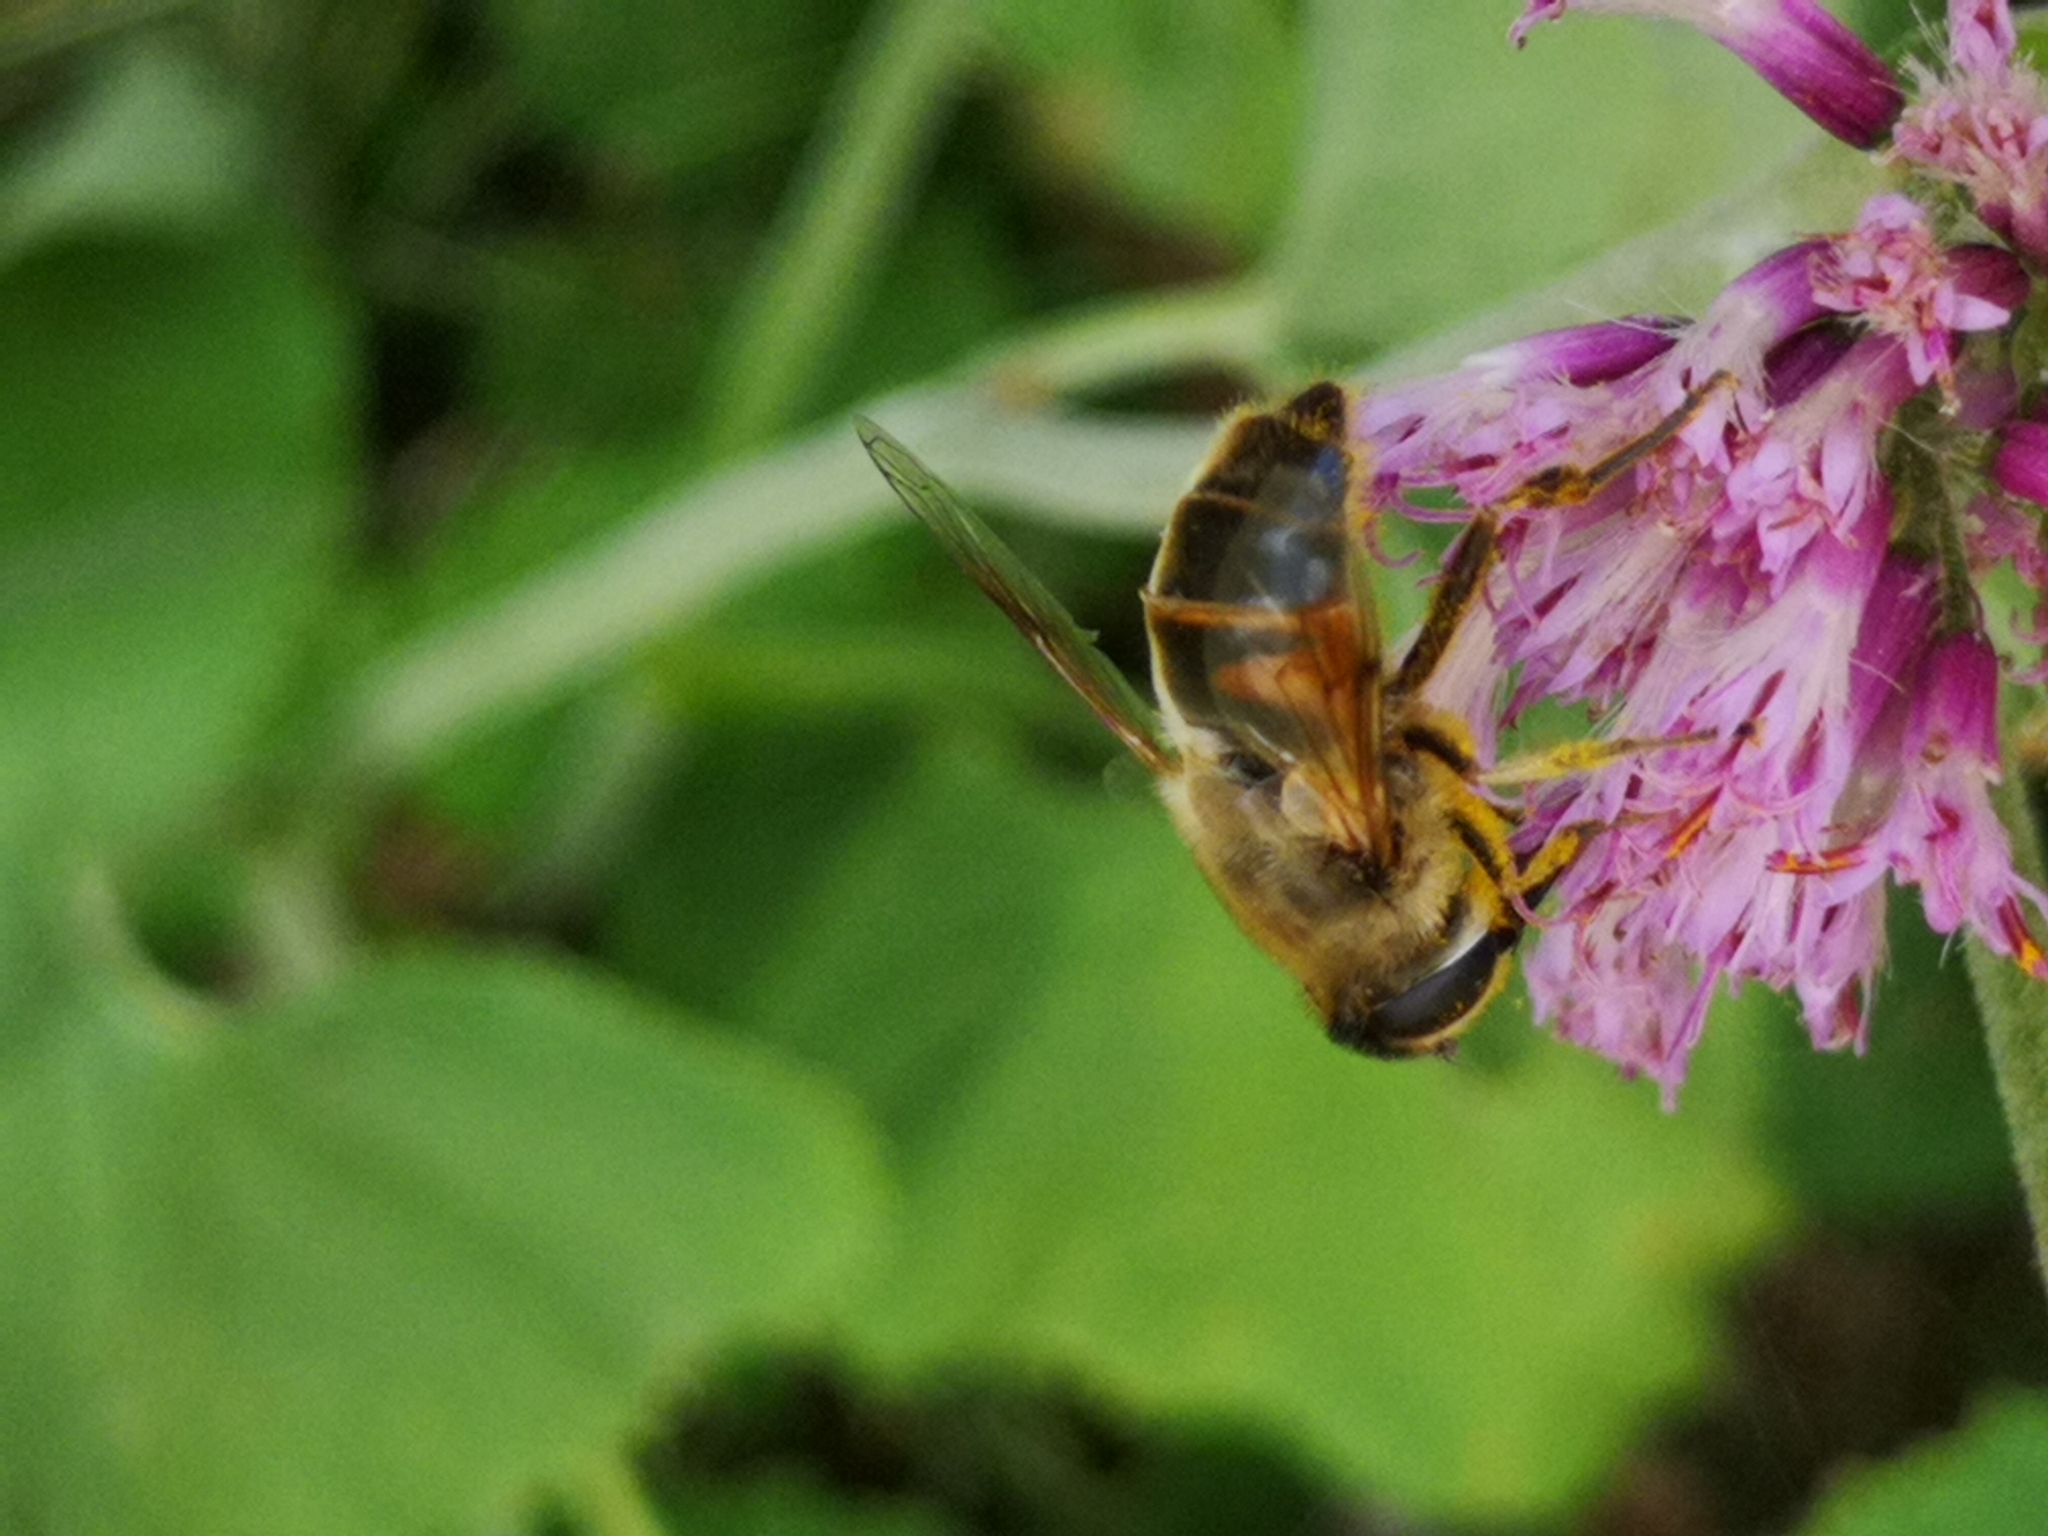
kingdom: Animalia
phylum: Arthropoda
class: Insecta
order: Diptera
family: Syrphidae
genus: Eristalis
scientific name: Eristalis tenax
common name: Drone fly
